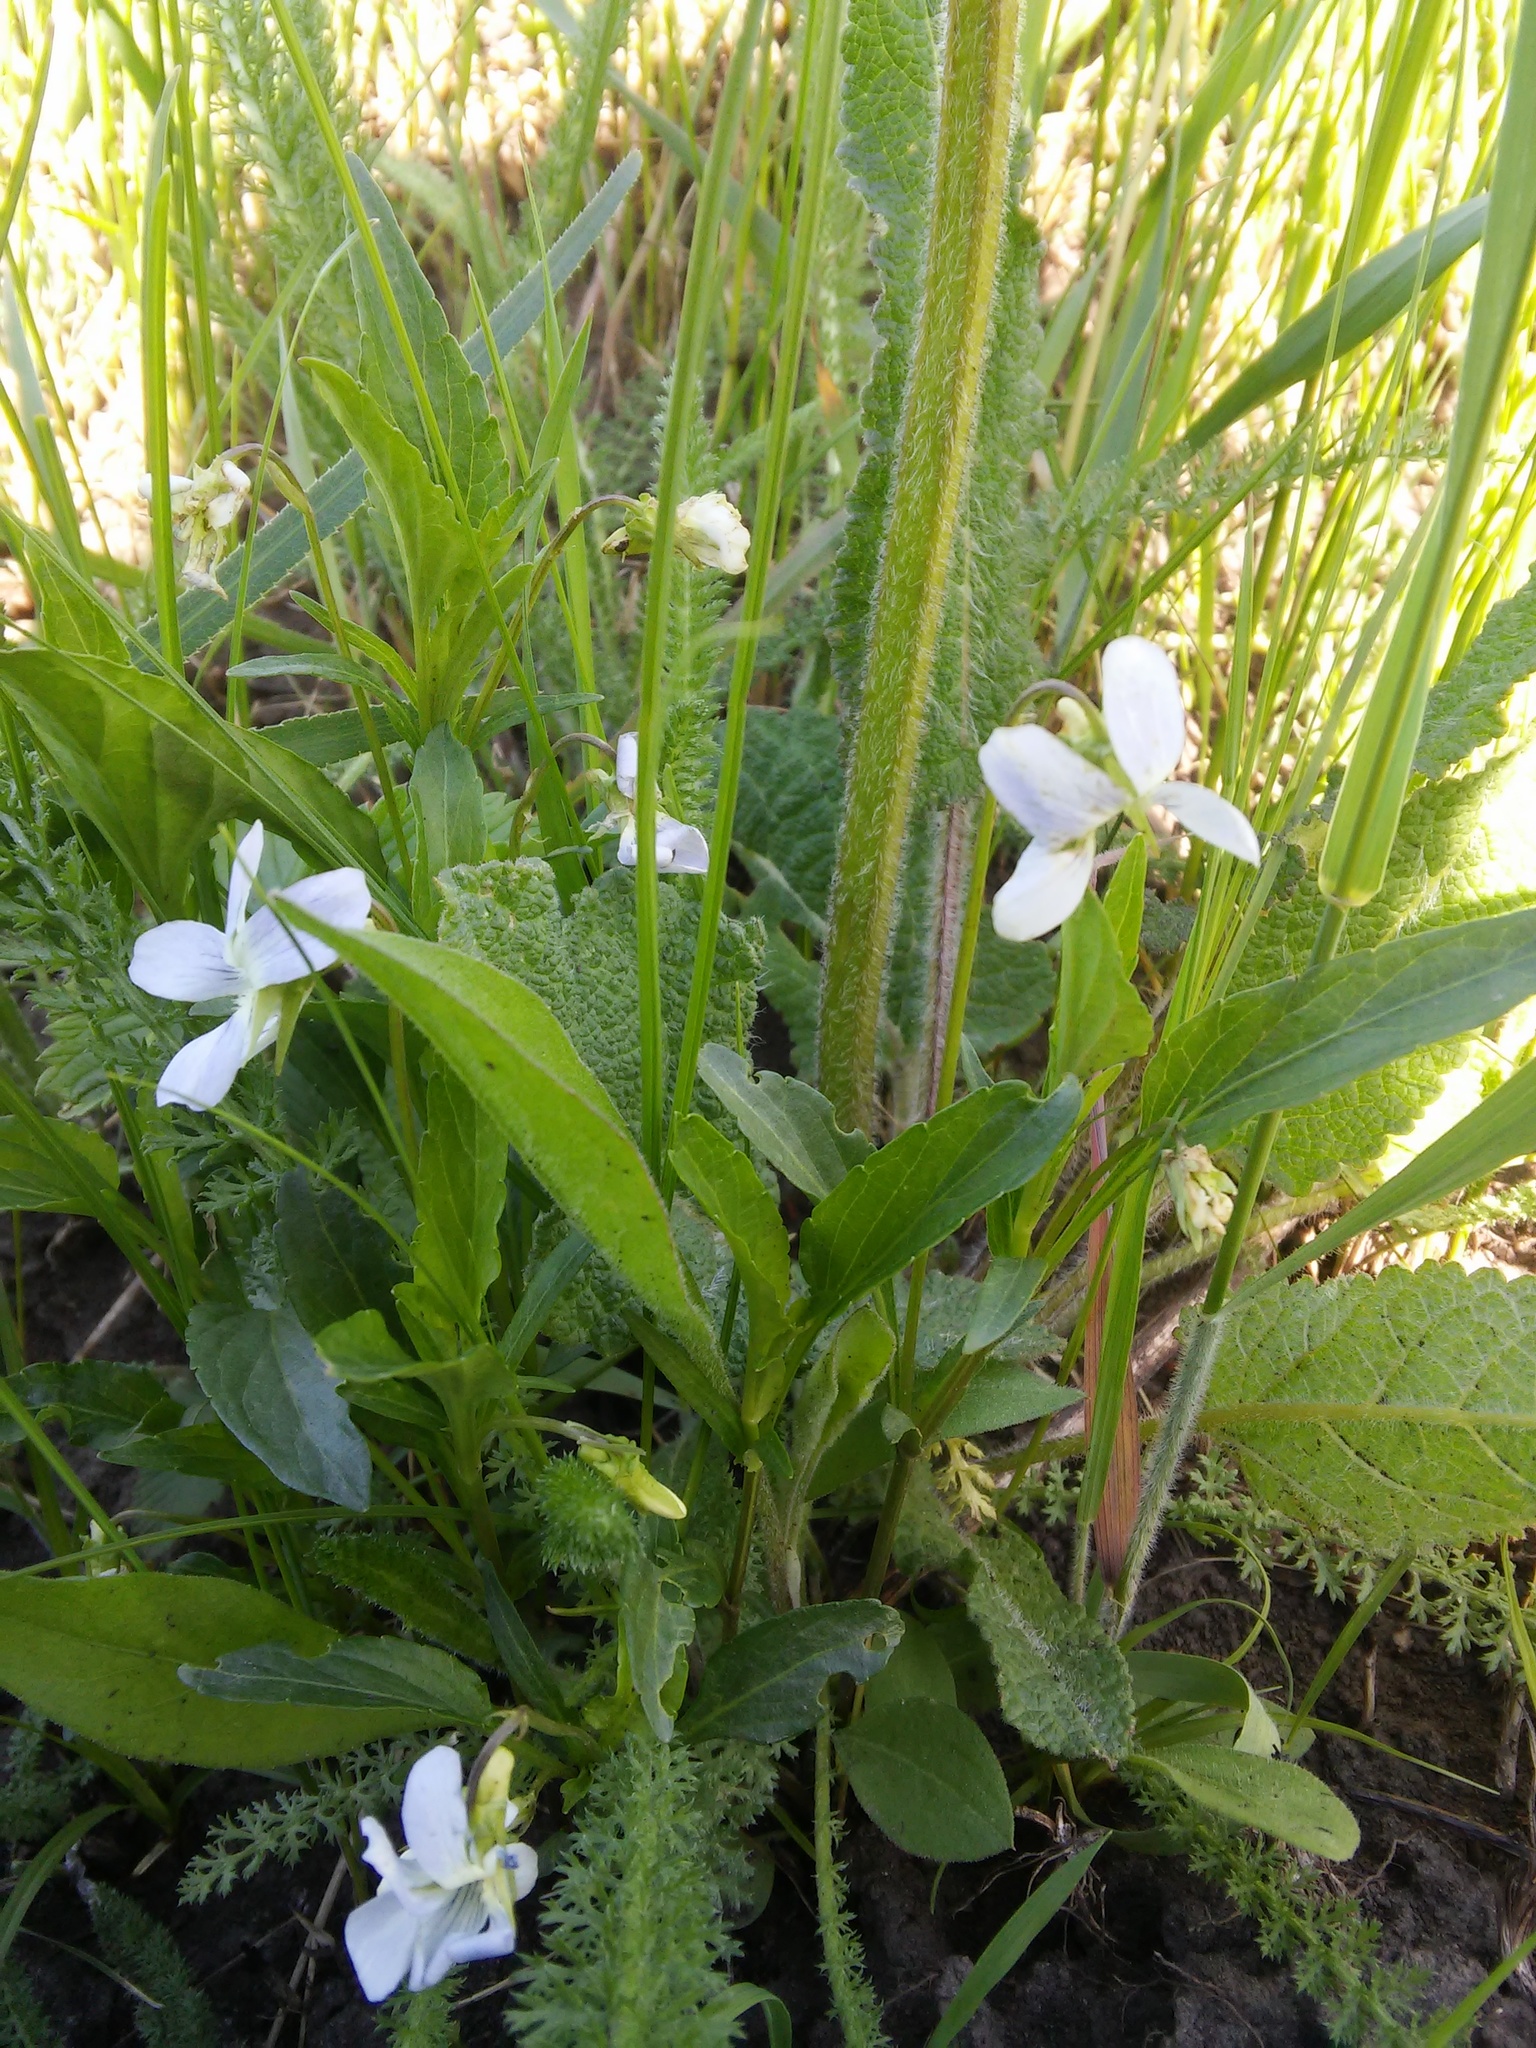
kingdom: Plantae
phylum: Tracheophyta
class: Magnoliopsida
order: Malpighiales
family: Violaceae
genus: Viola
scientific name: Viola pumila
